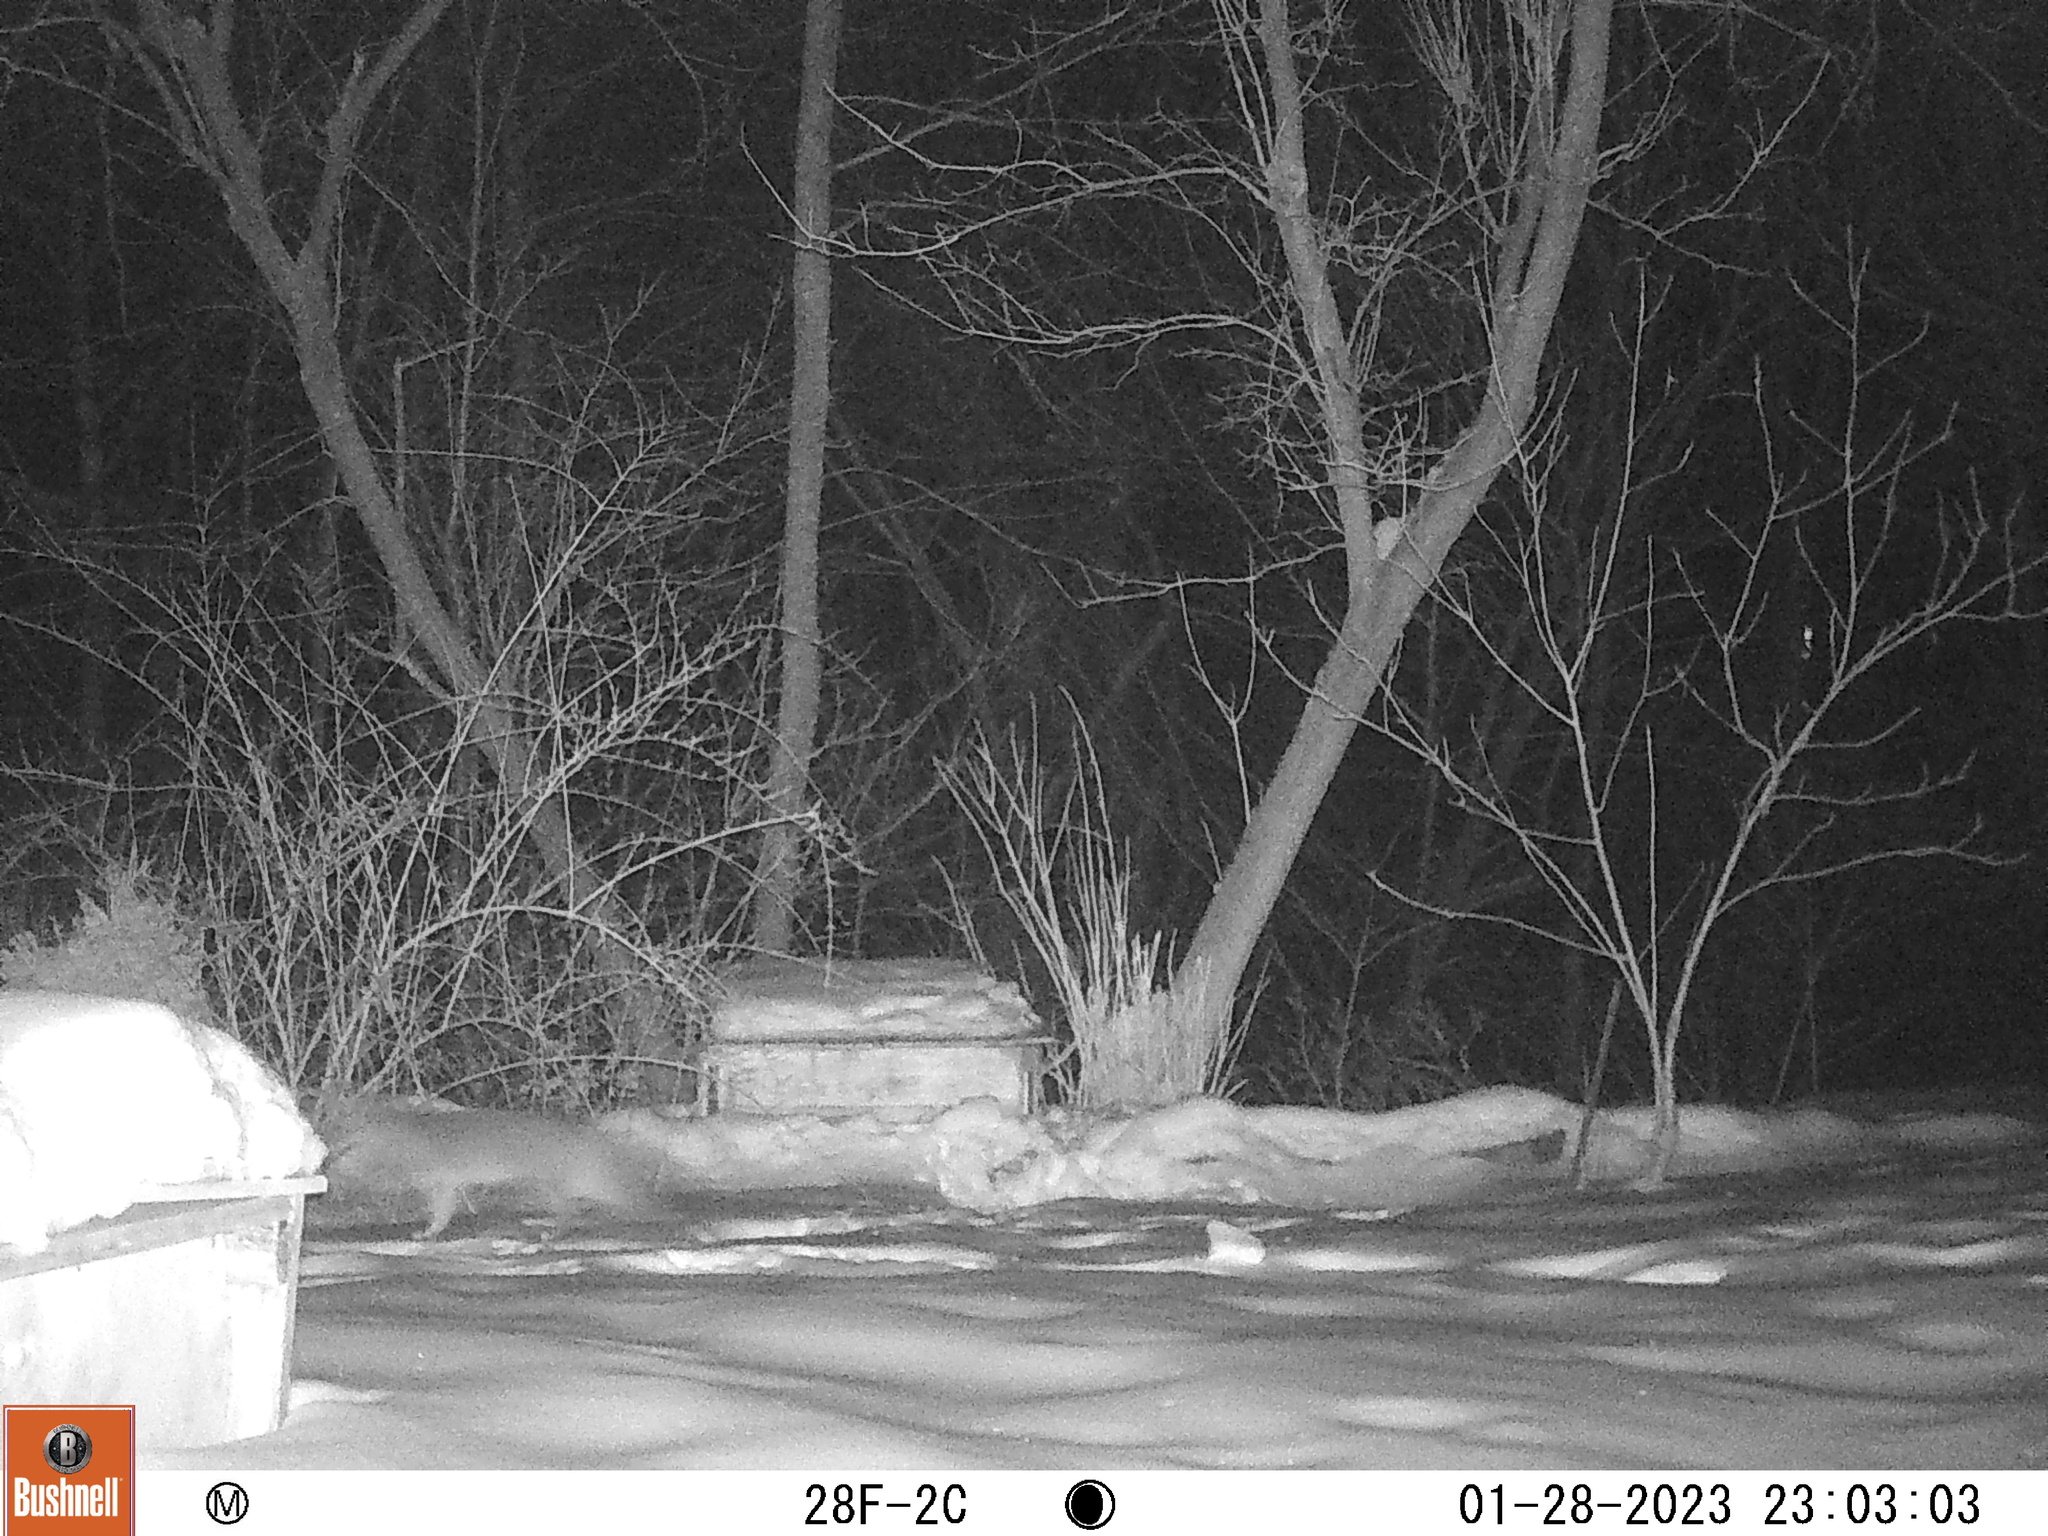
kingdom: Animalia
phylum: Chordata
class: Mammalia
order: Carnivora
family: Canidae
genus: Urocyon
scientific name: Urocyon cinereoargenteus
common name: Gray fox
